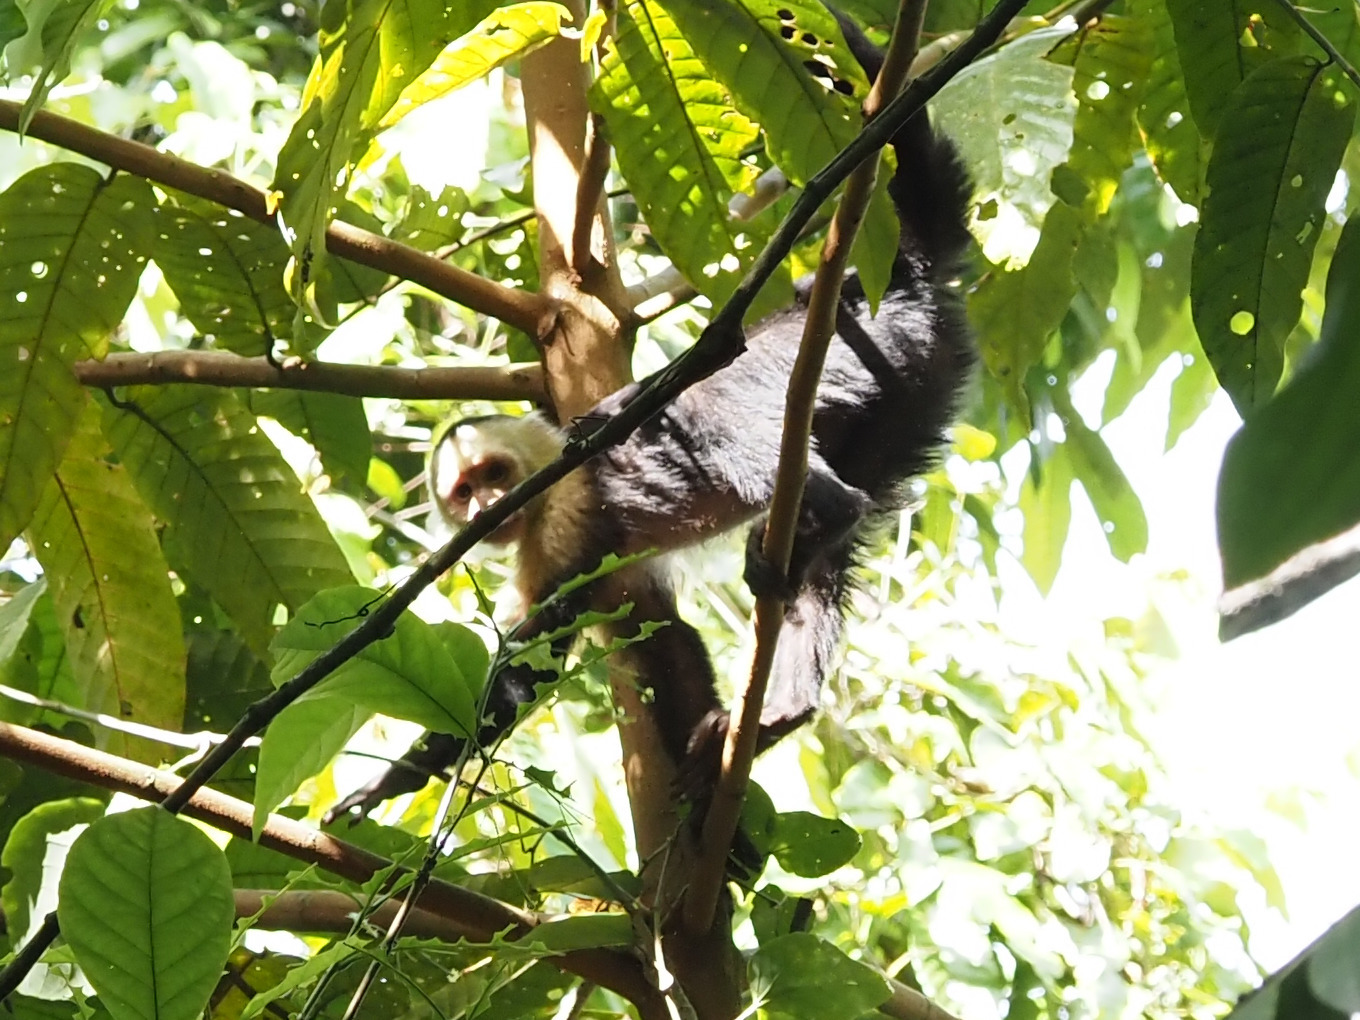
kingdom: Animalia
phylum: Chordata
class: Mammalia
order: Primates
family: Cebidae
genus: Cebus
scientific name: Cebus imitator
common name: Panamanian white-faced capuchin
